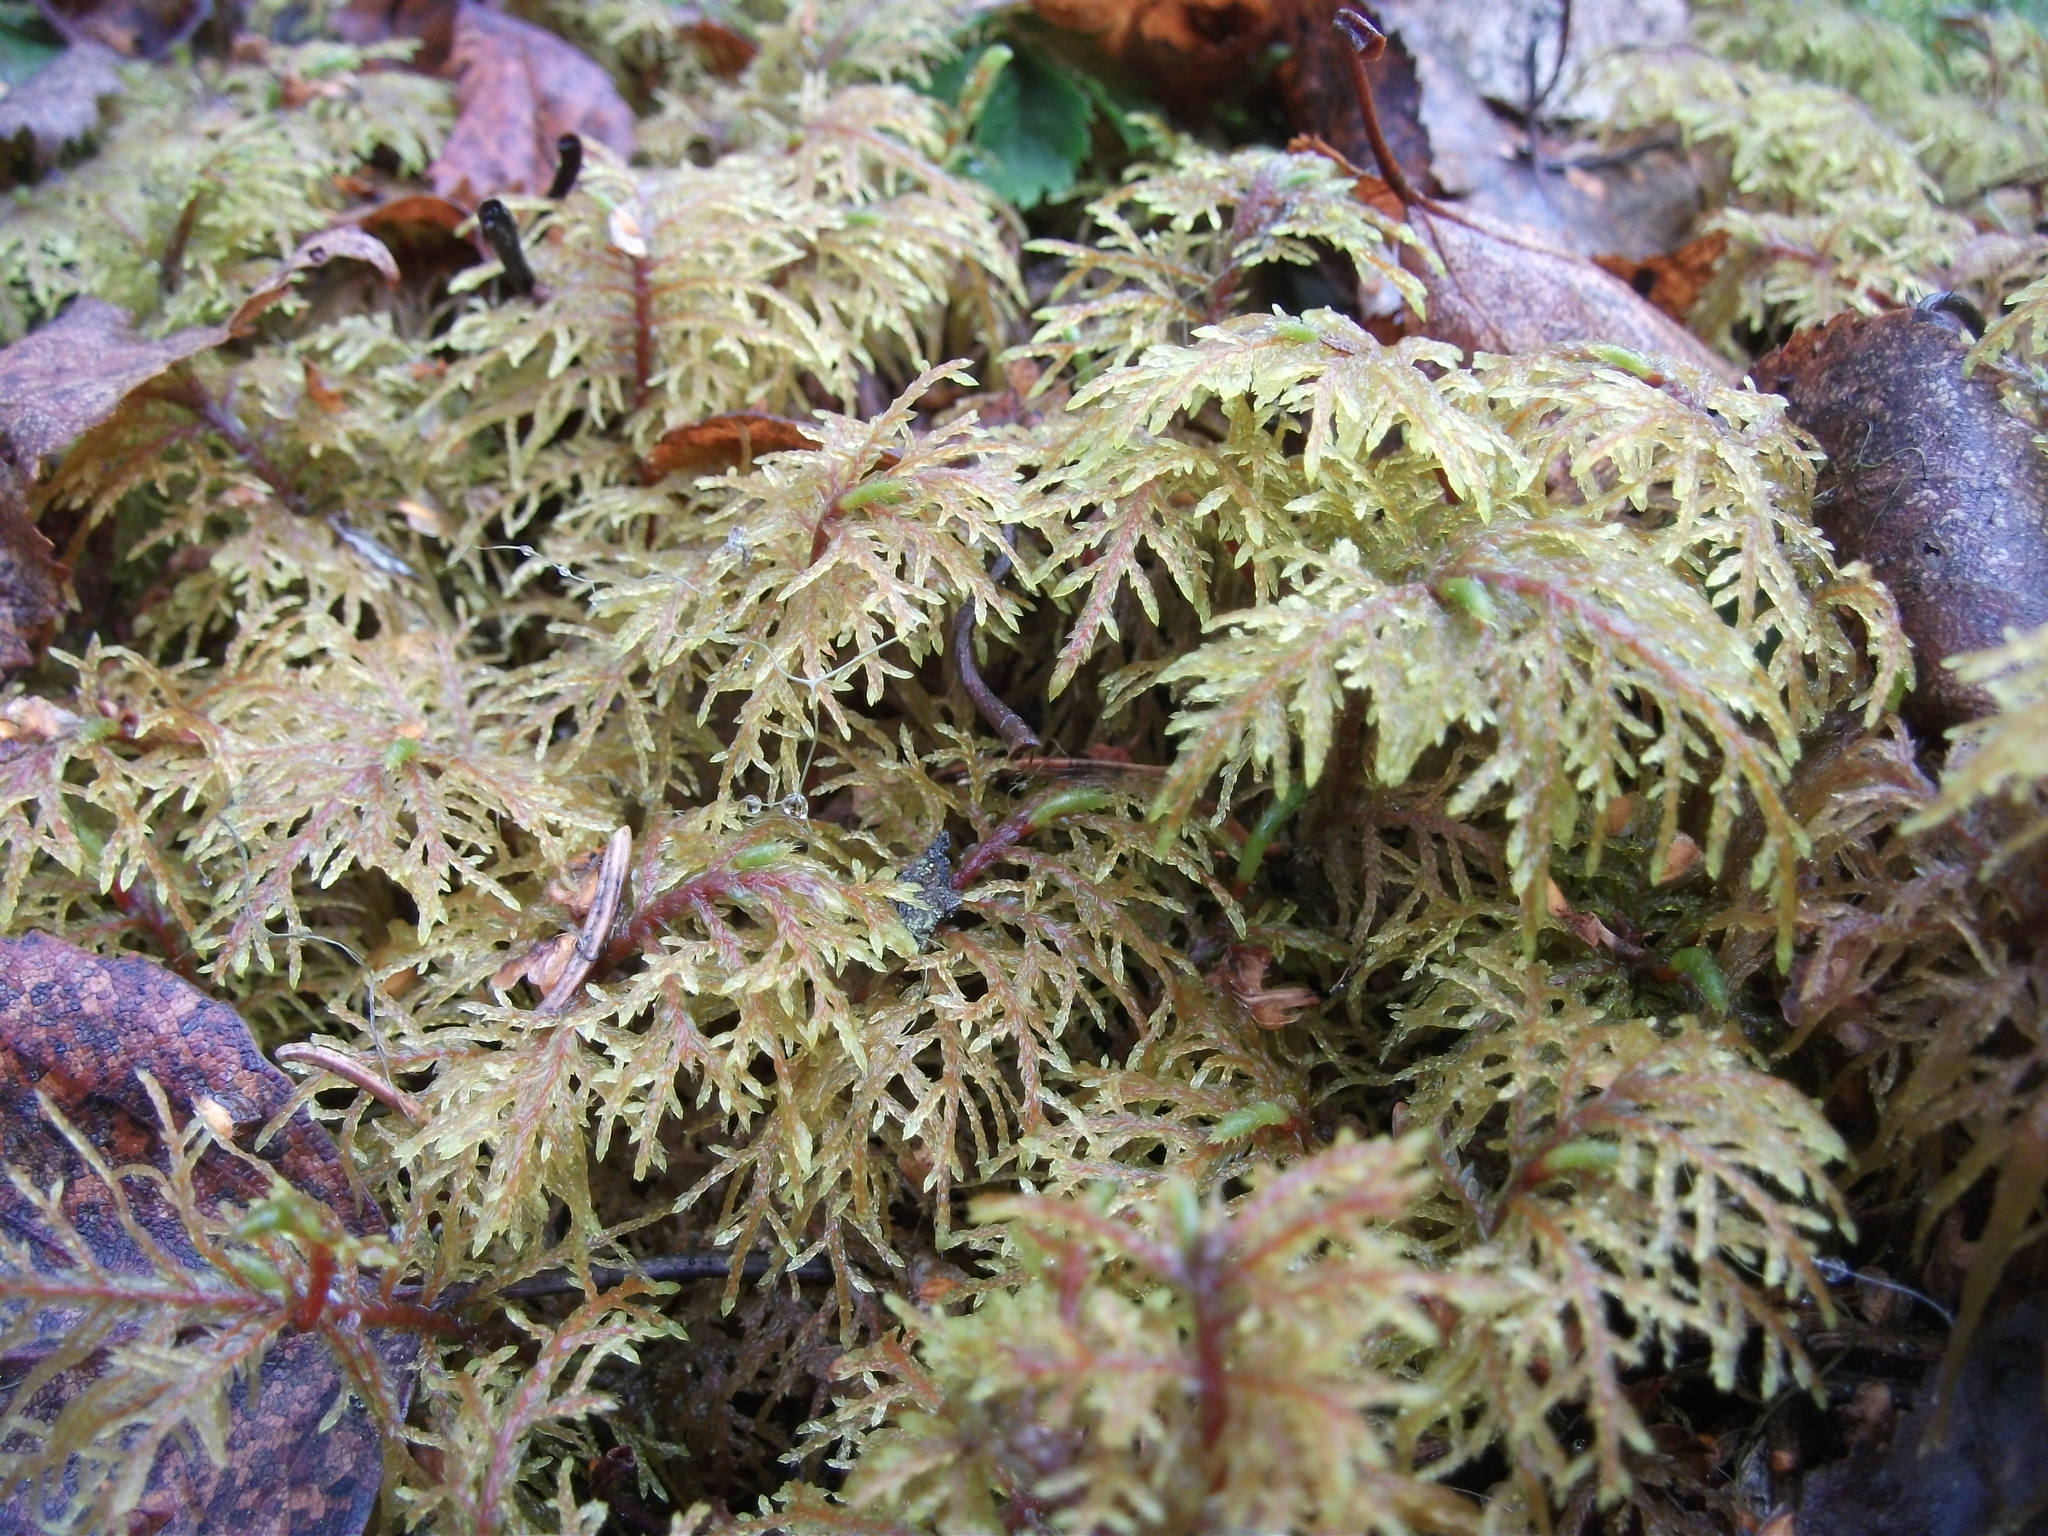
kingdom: Plantae
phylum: Bryophyta
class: Bryopsida
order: Hypnales
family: Hylocomiaceae
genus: Hylocomium
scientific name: Hylocomium splendens
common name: Stairstep moss
